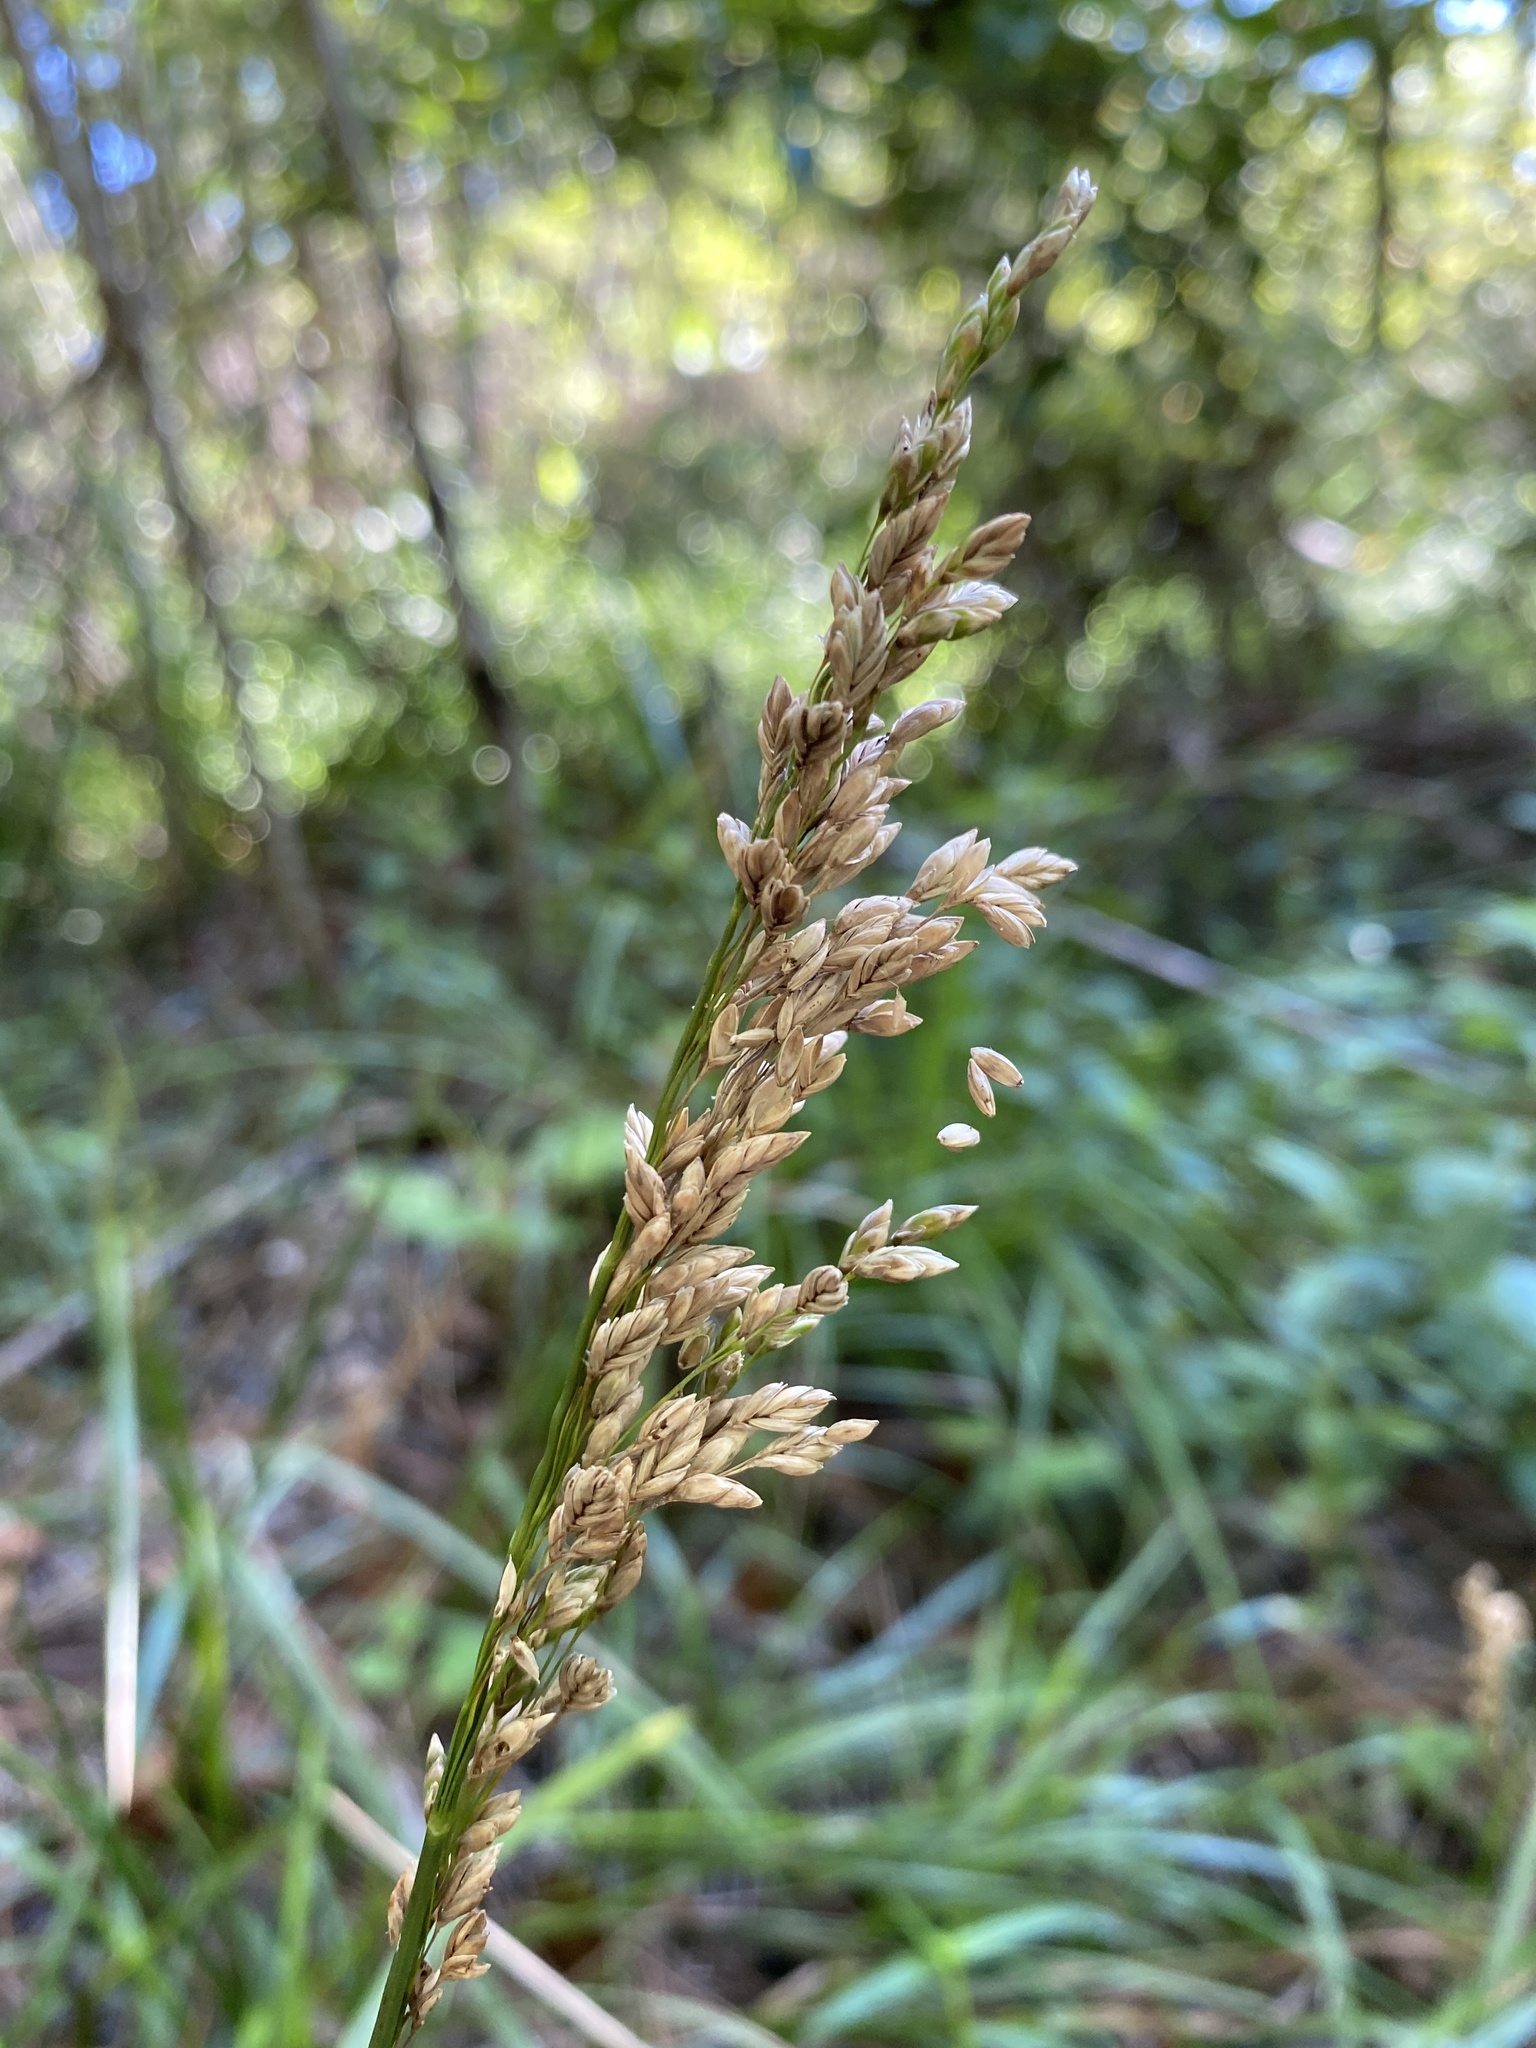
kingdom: Plantae
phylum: Tracheophyta
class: Liliopsida
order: Poales
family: Poaceae
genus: Glyceria
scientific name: Glyceria obtusa
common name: Atlantic mannagrass
